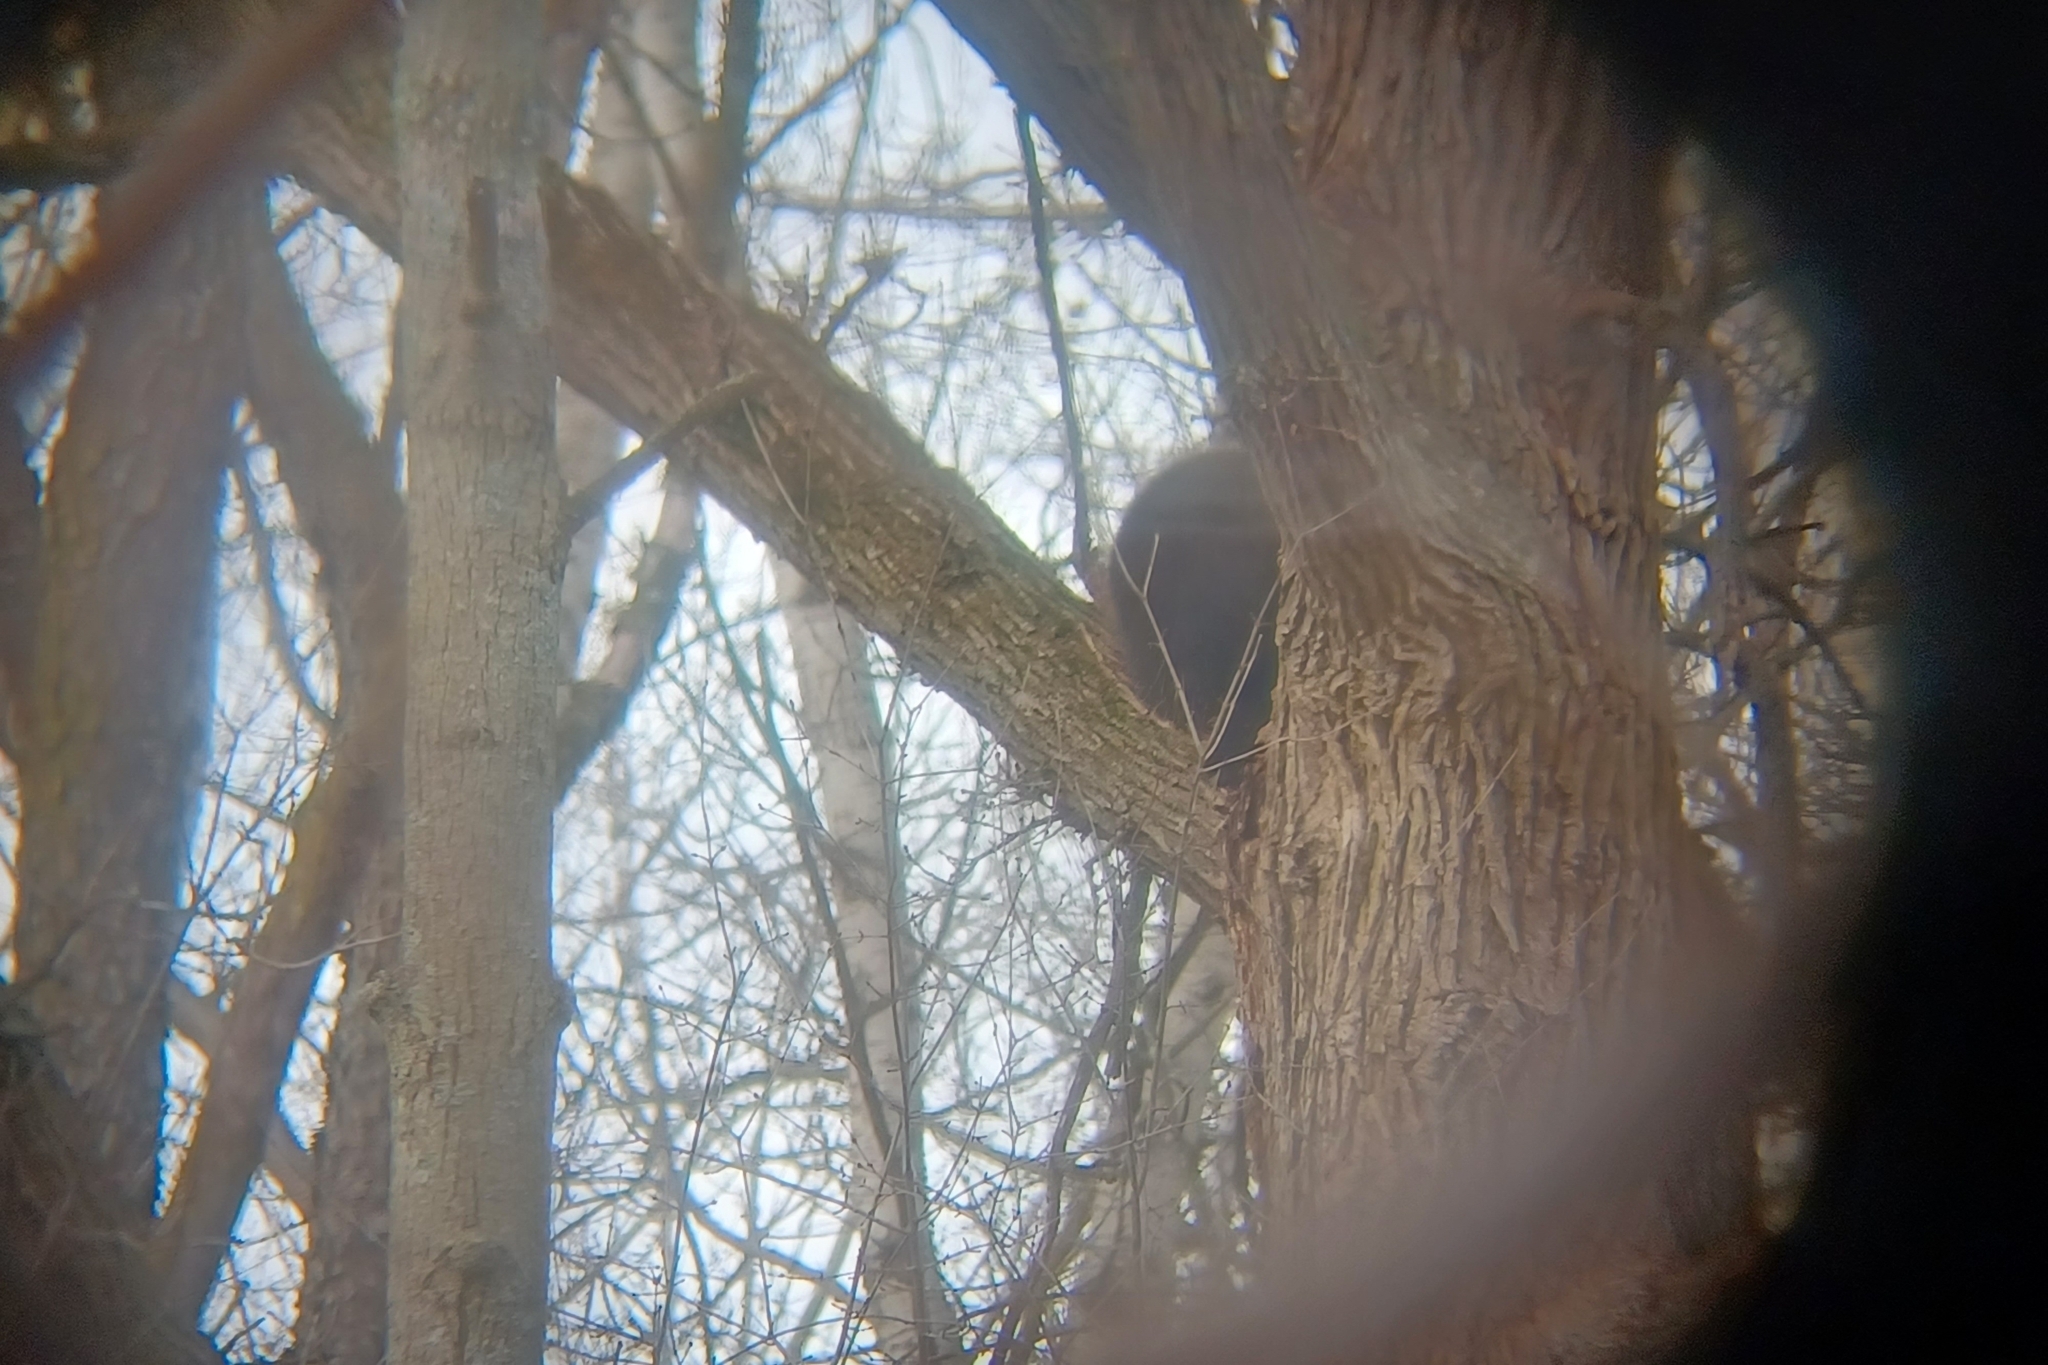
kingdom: Animalia
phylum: Chordata
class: Mammalia
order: Rodentia
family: Erethizontidae
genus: Erethizon
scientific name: Erethizon dorsatus
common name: North american porcupine
